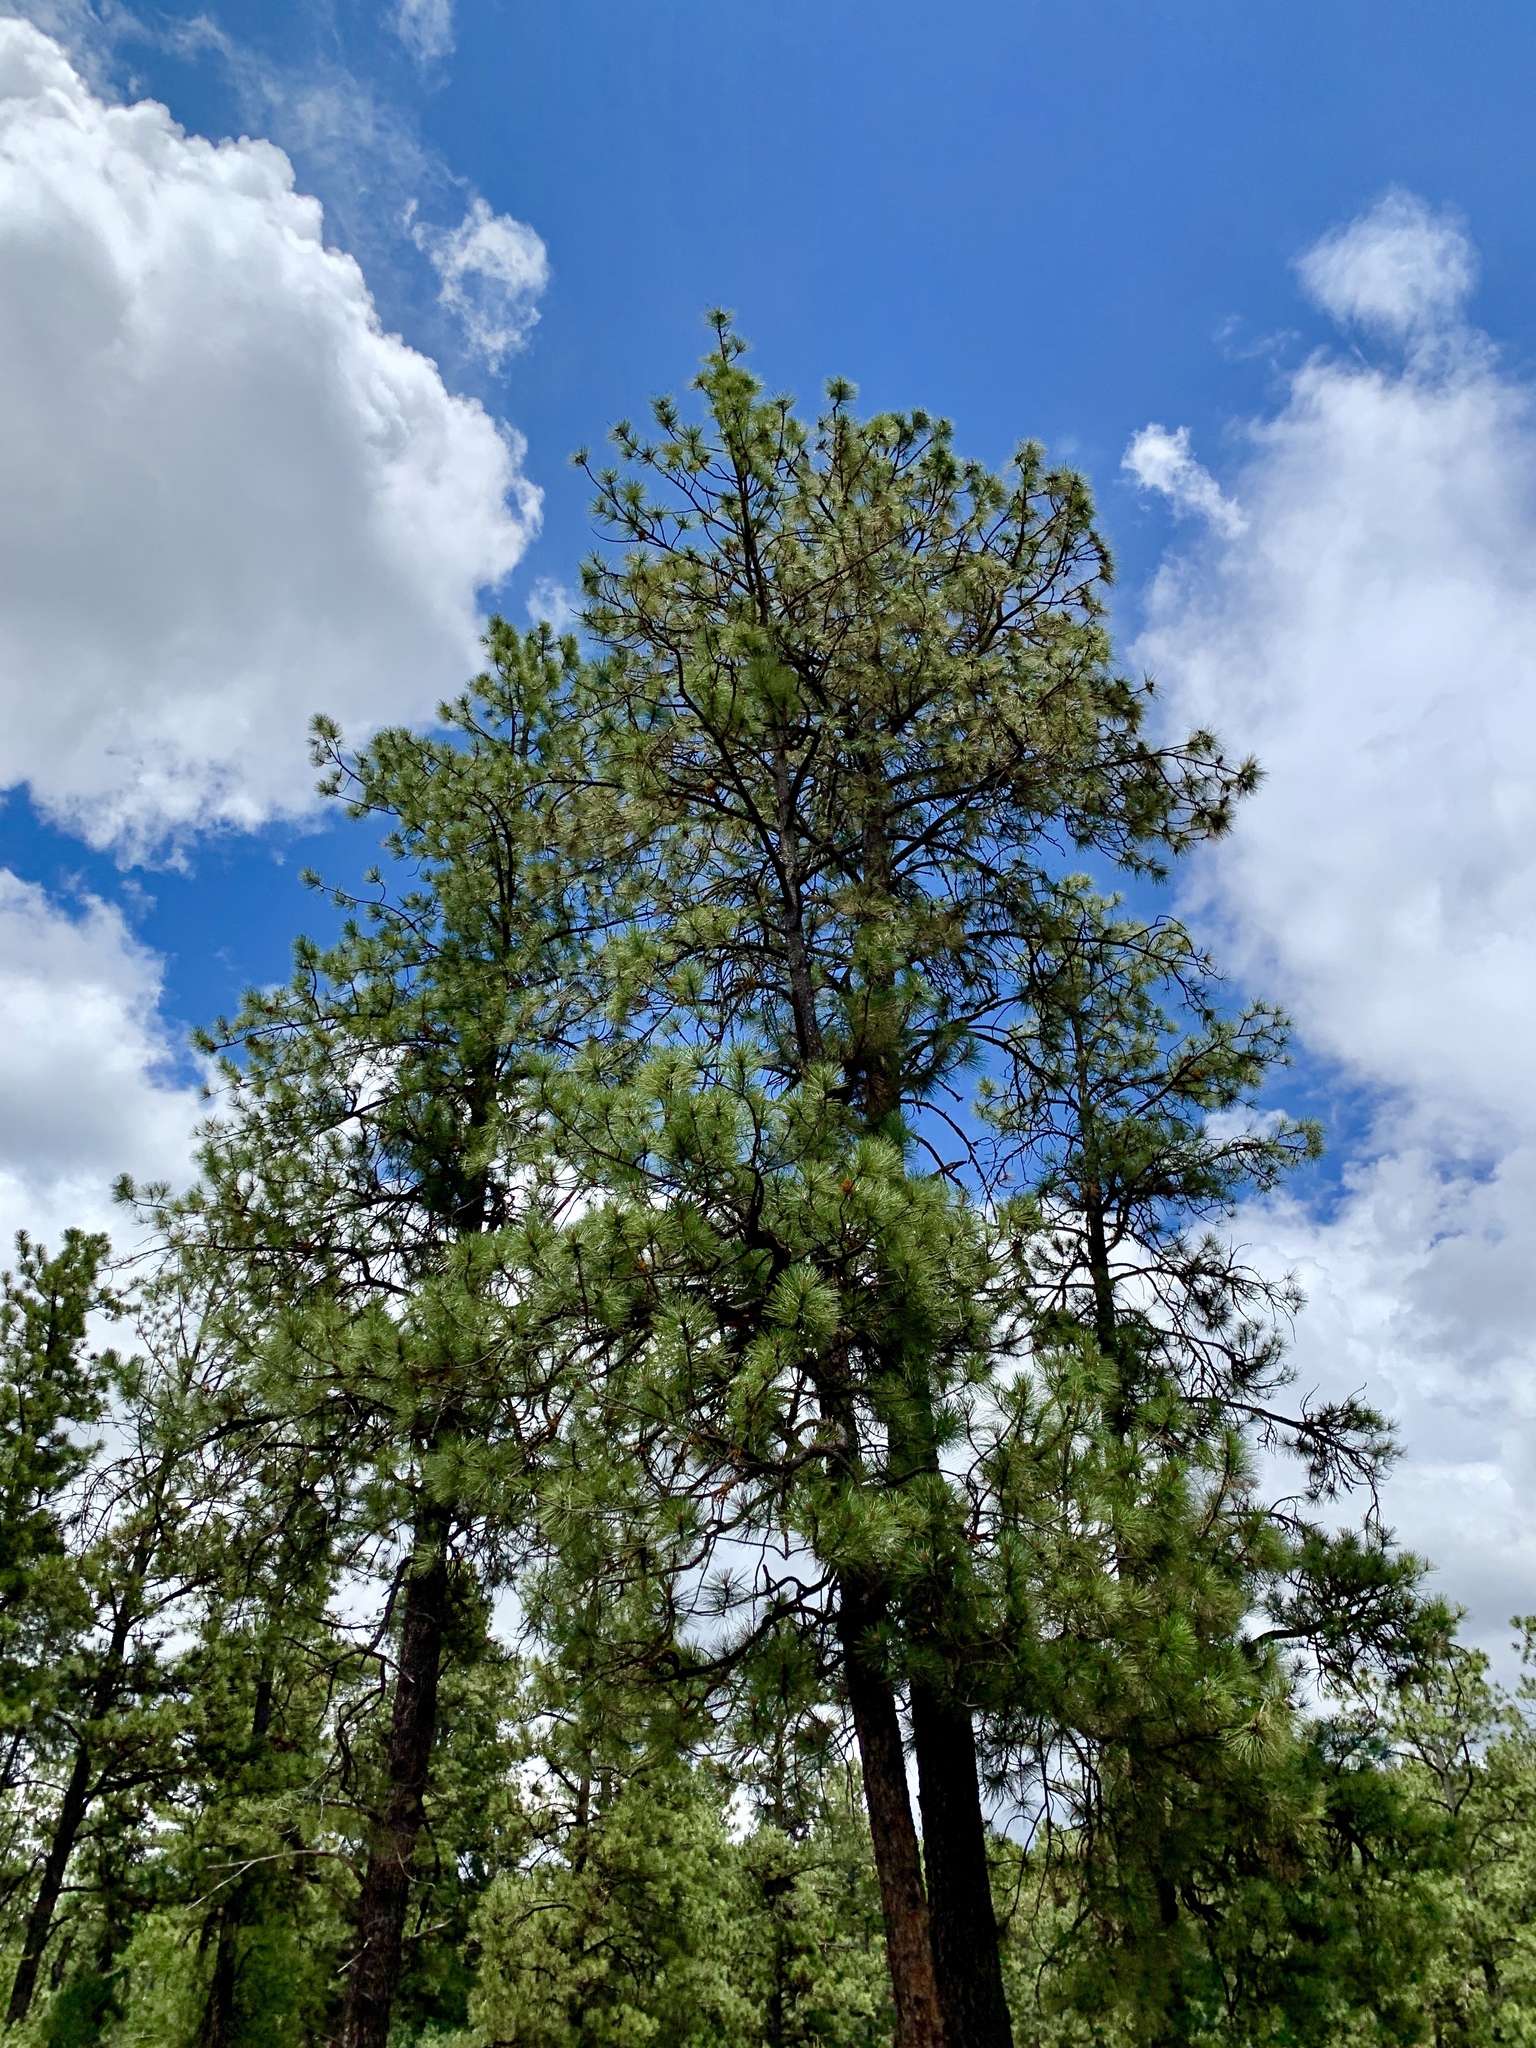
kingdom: Plantae
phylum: Tracheophyta
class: Pinopsida
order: Pinales
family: Pinaceae
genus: Pinus
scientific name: Pinus ponderosa
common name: Western yellow-pine
